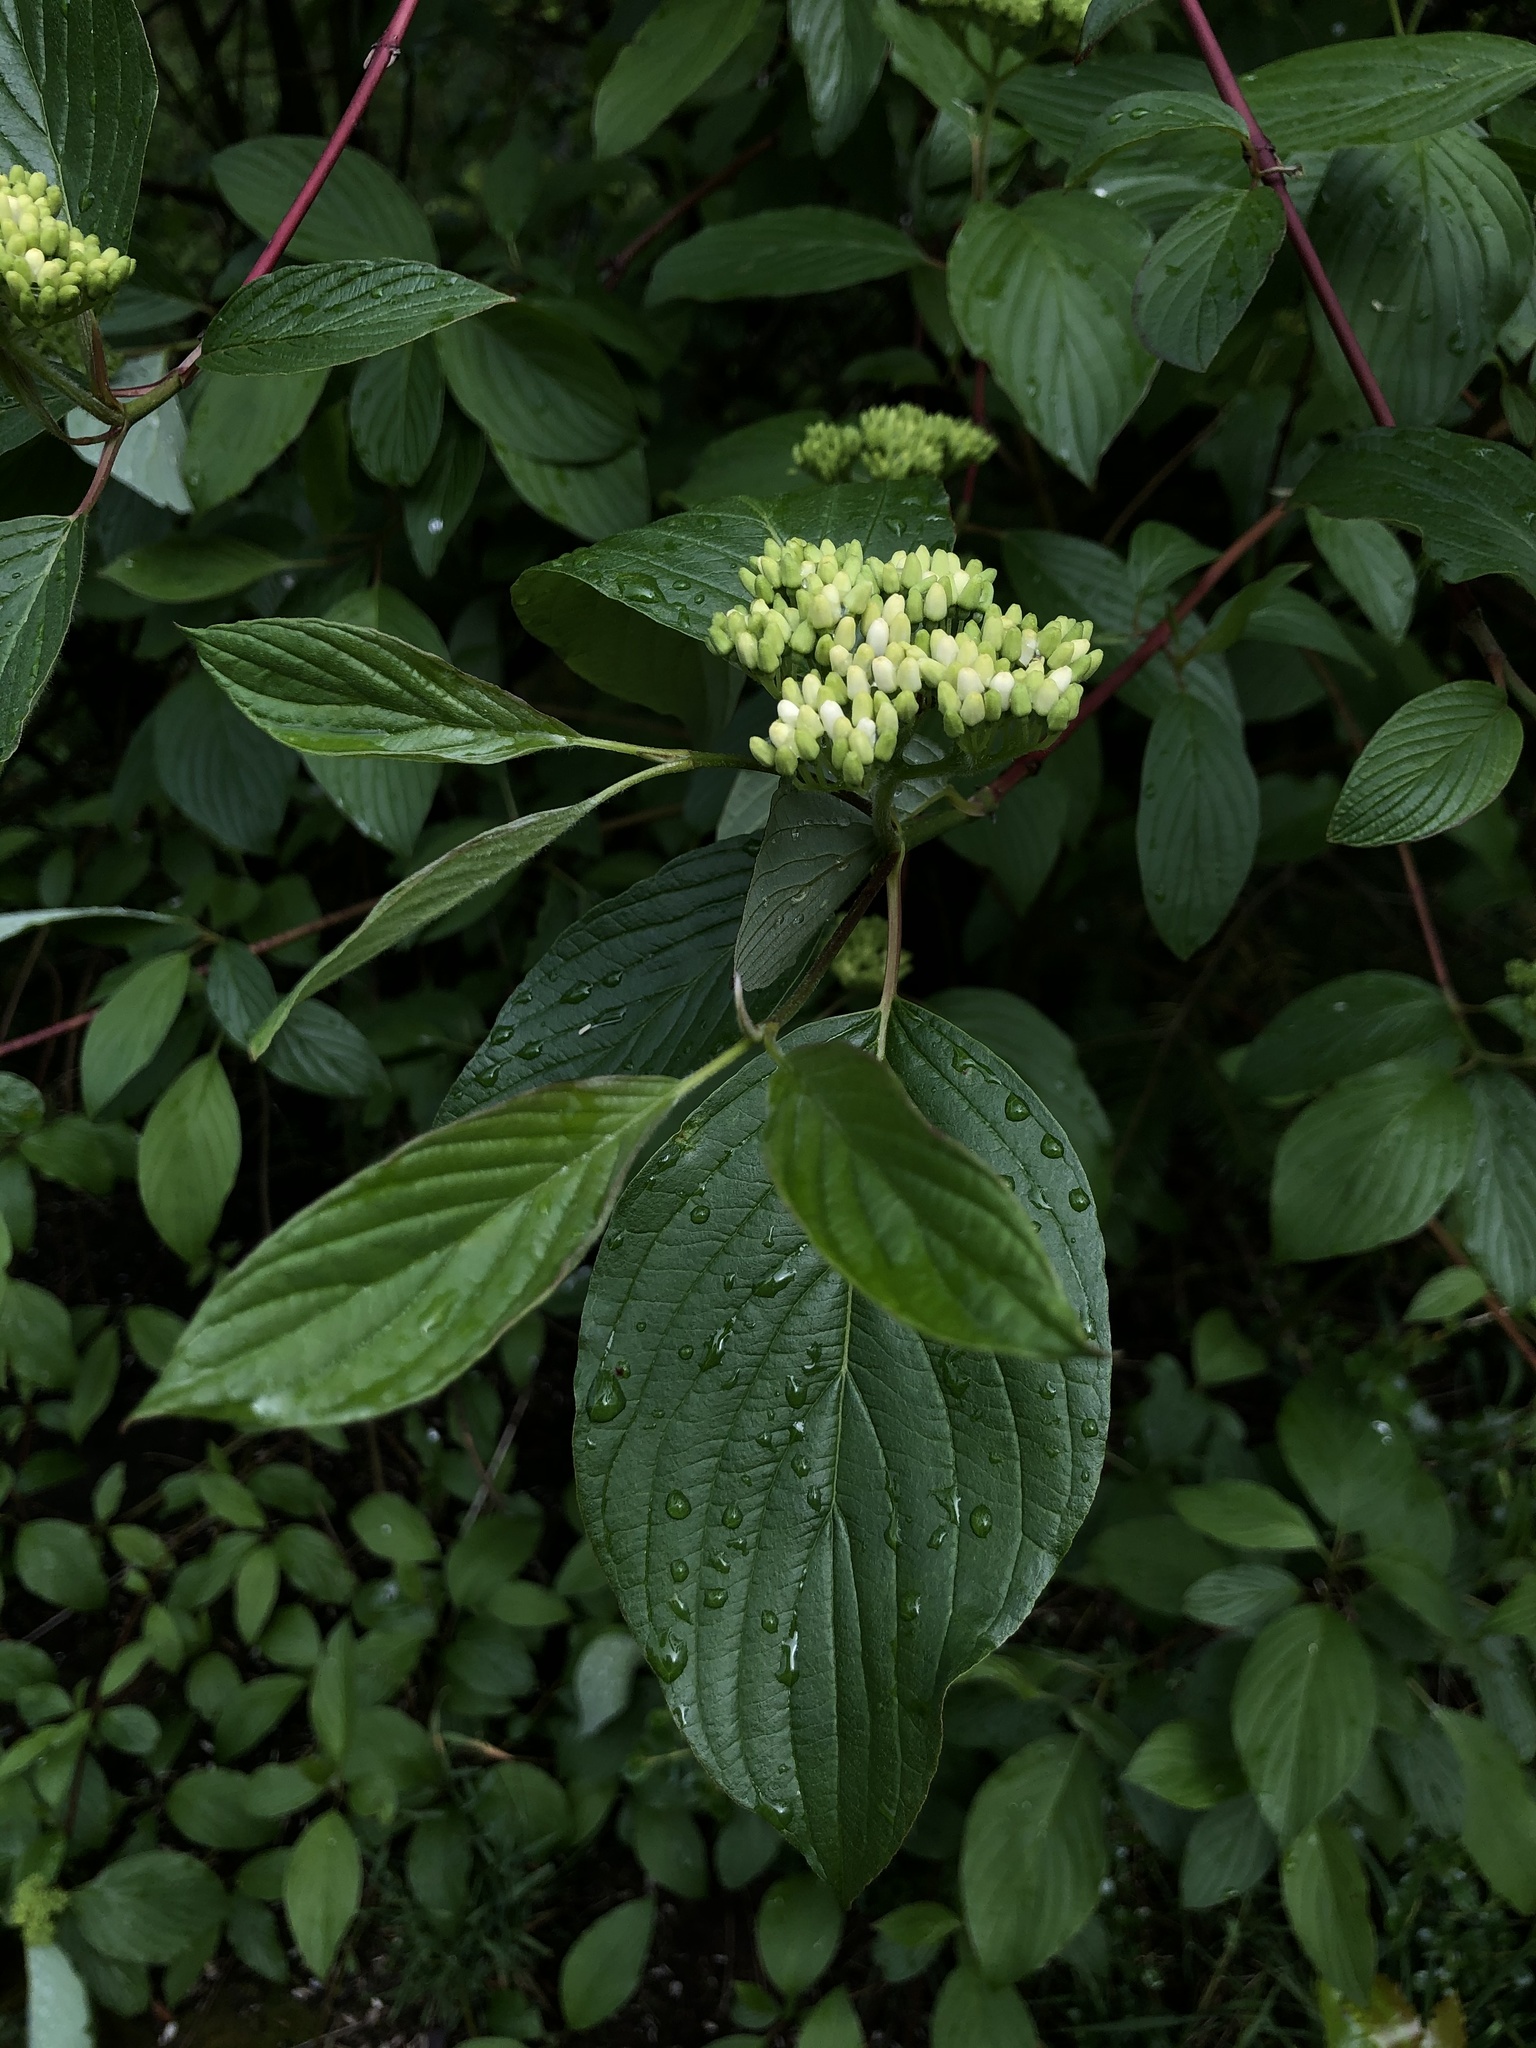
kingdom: Plantae
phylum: Tracheophyta
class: Magnoliopsida
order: Cornales
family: Cornaceae
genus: Cornus
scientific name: Cornus sericea
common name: Red-osier dogwood
